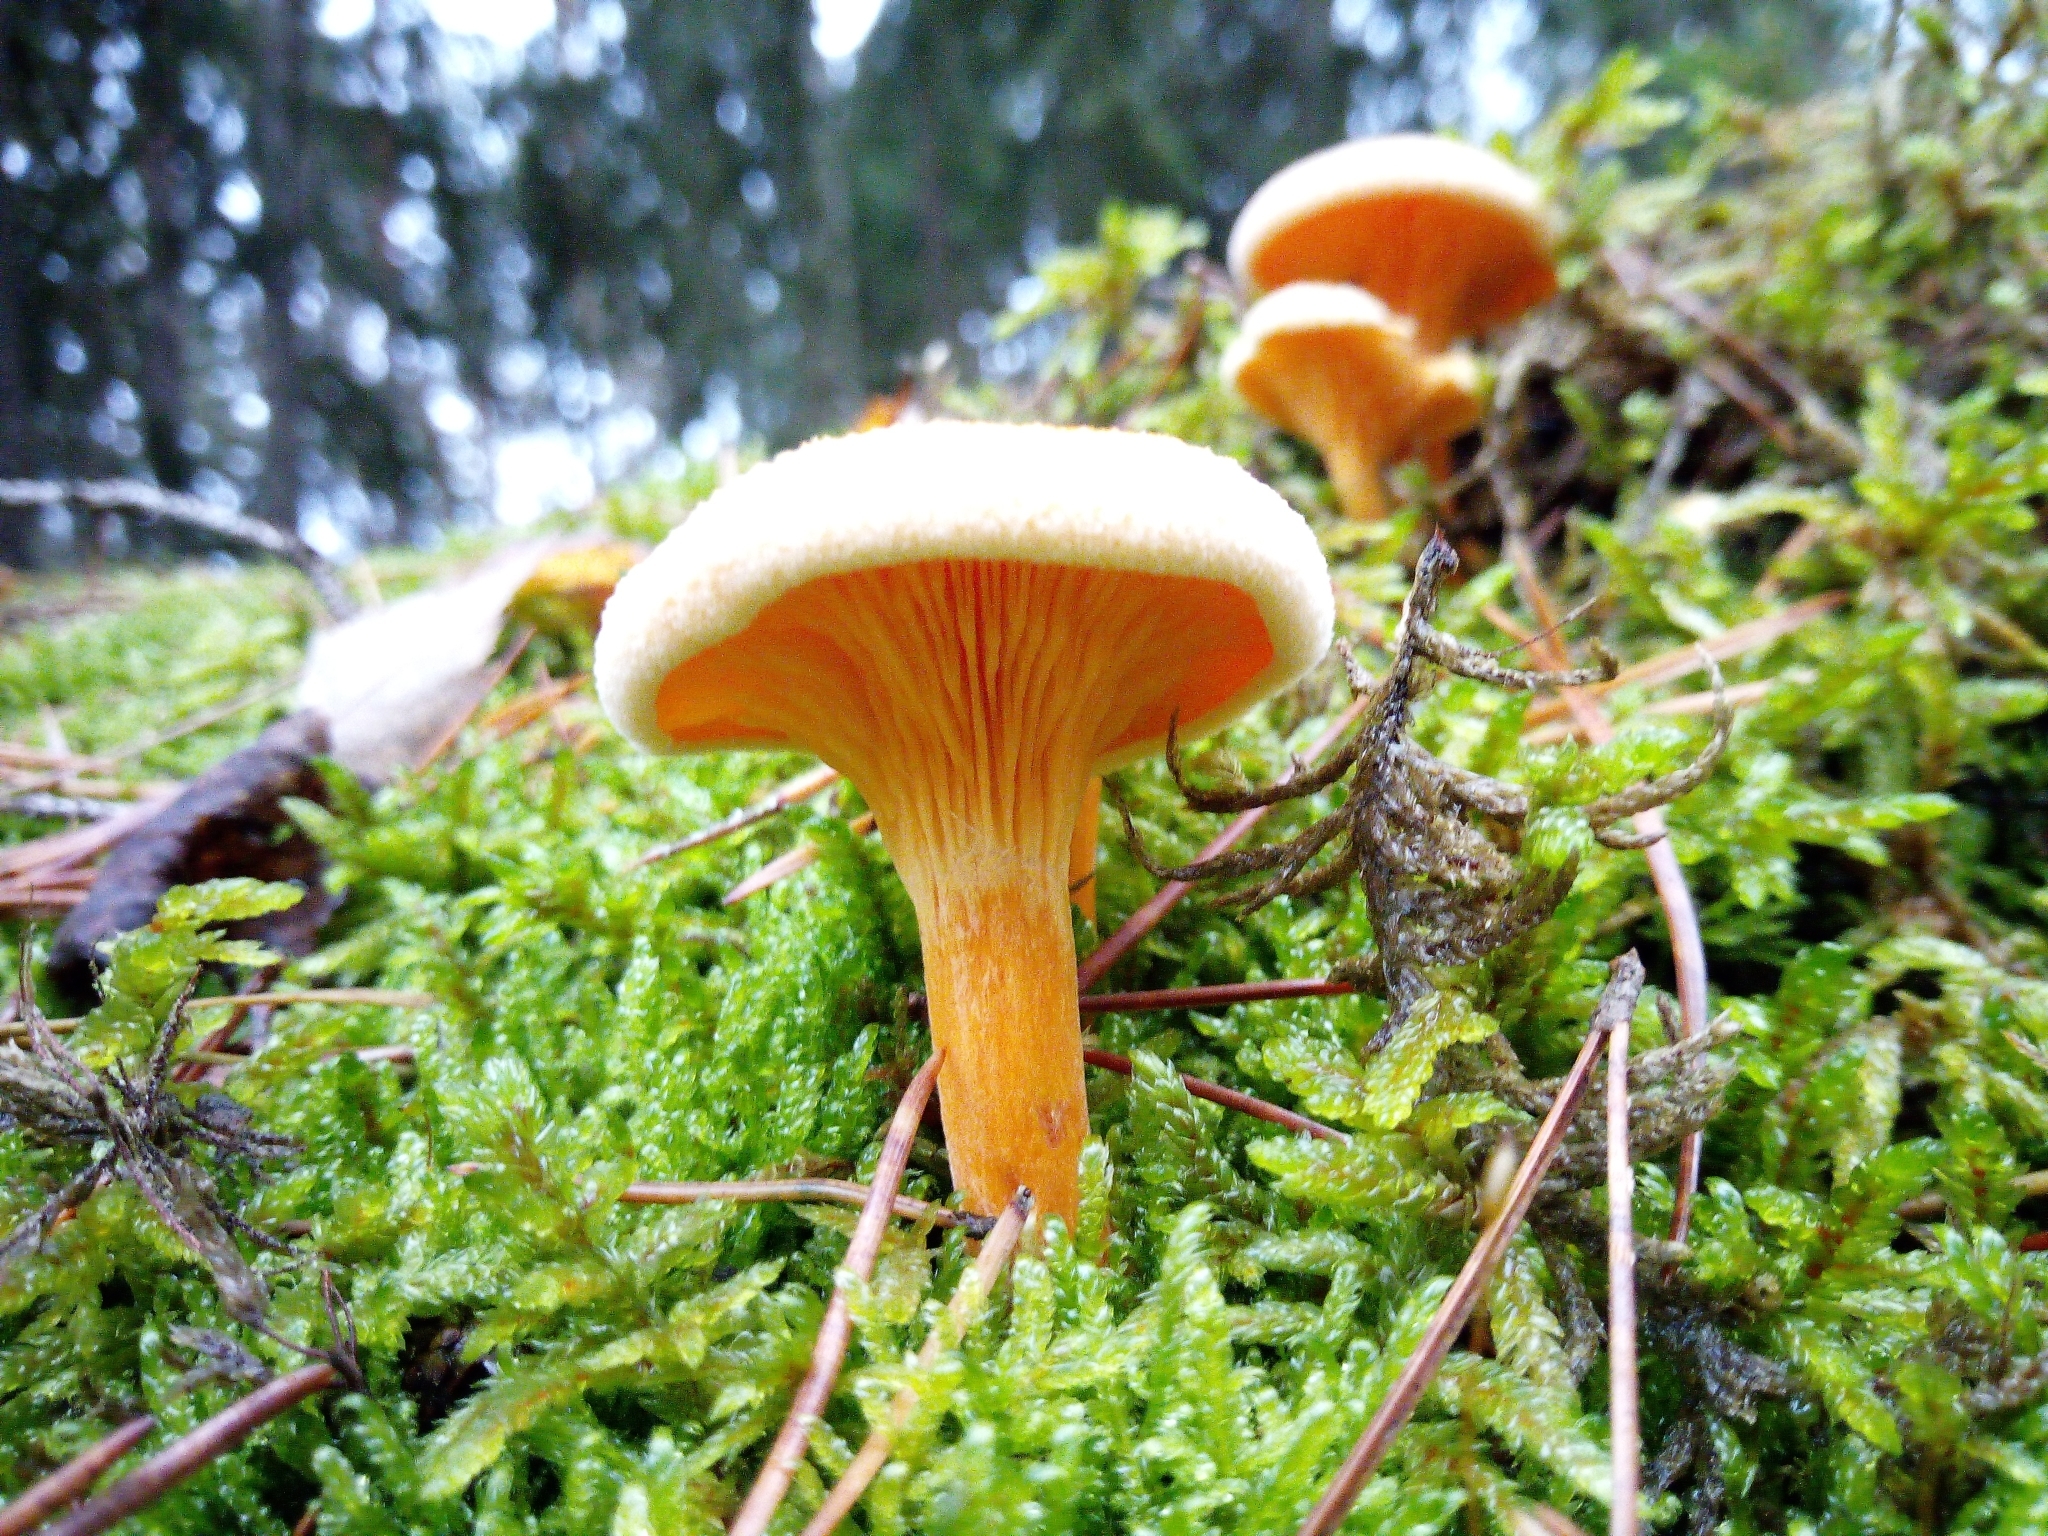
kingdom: Fungi
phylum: Basidiomycota
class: Agaricomycetes
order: Boletales
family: Hygrophoropsidaceae
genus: Hygrophoropsis
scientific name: Hygrophoropsis aurantiaca
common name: False chanterelle
